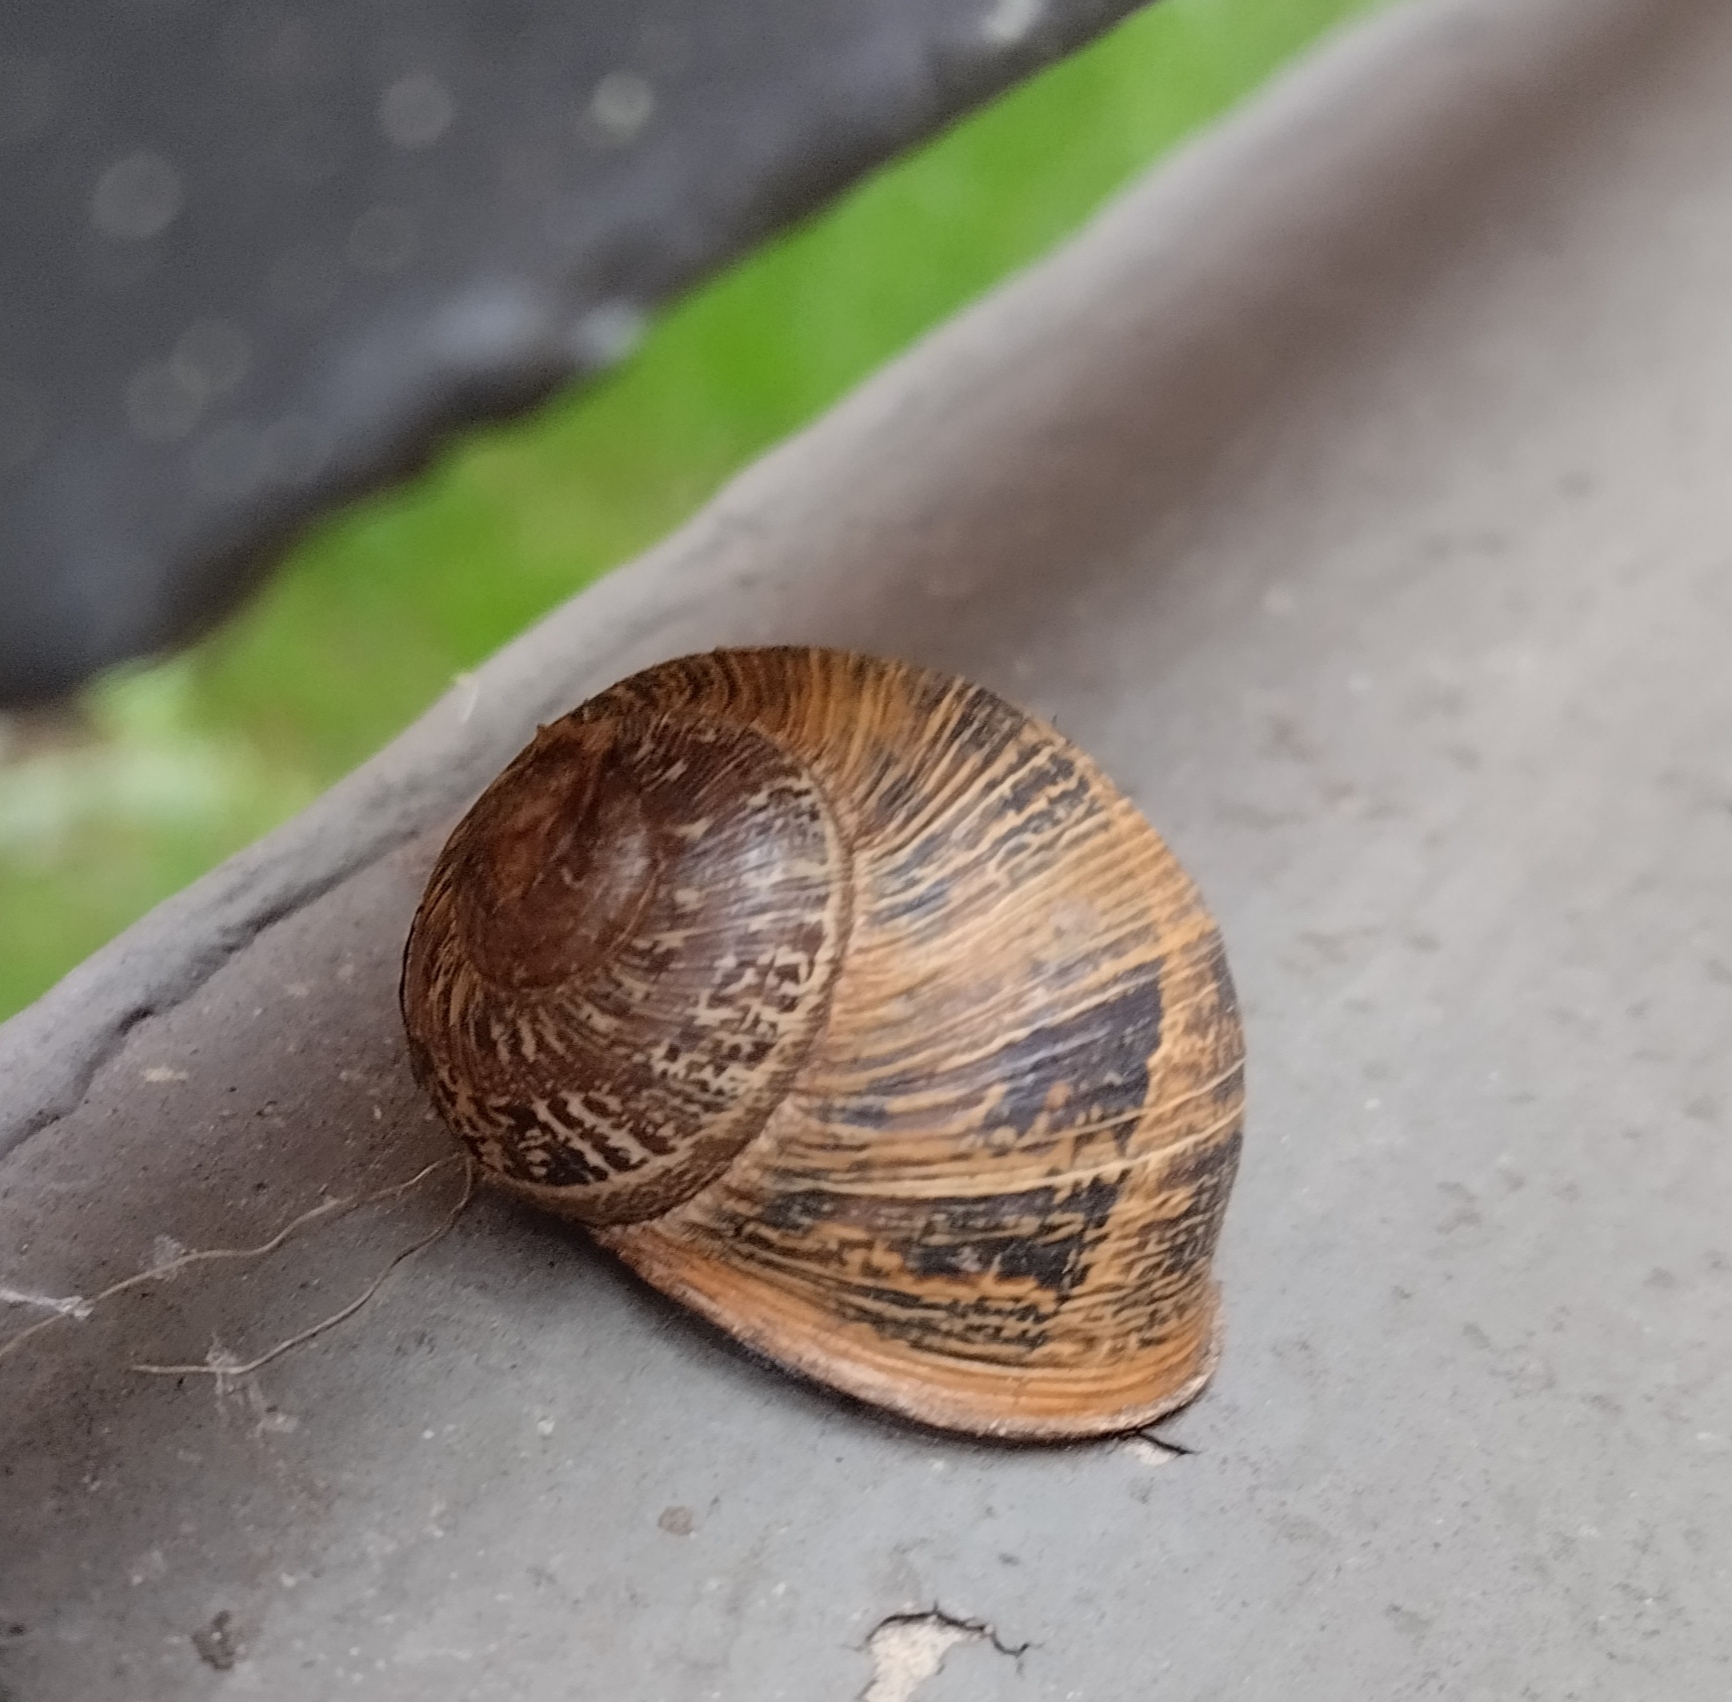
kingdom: Animalia
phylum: Mollusca
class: Gastropoda
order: Stylommatophora
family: Helicidae
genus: Cornu
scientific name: Cornu aspersum
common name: Brown garden snail
